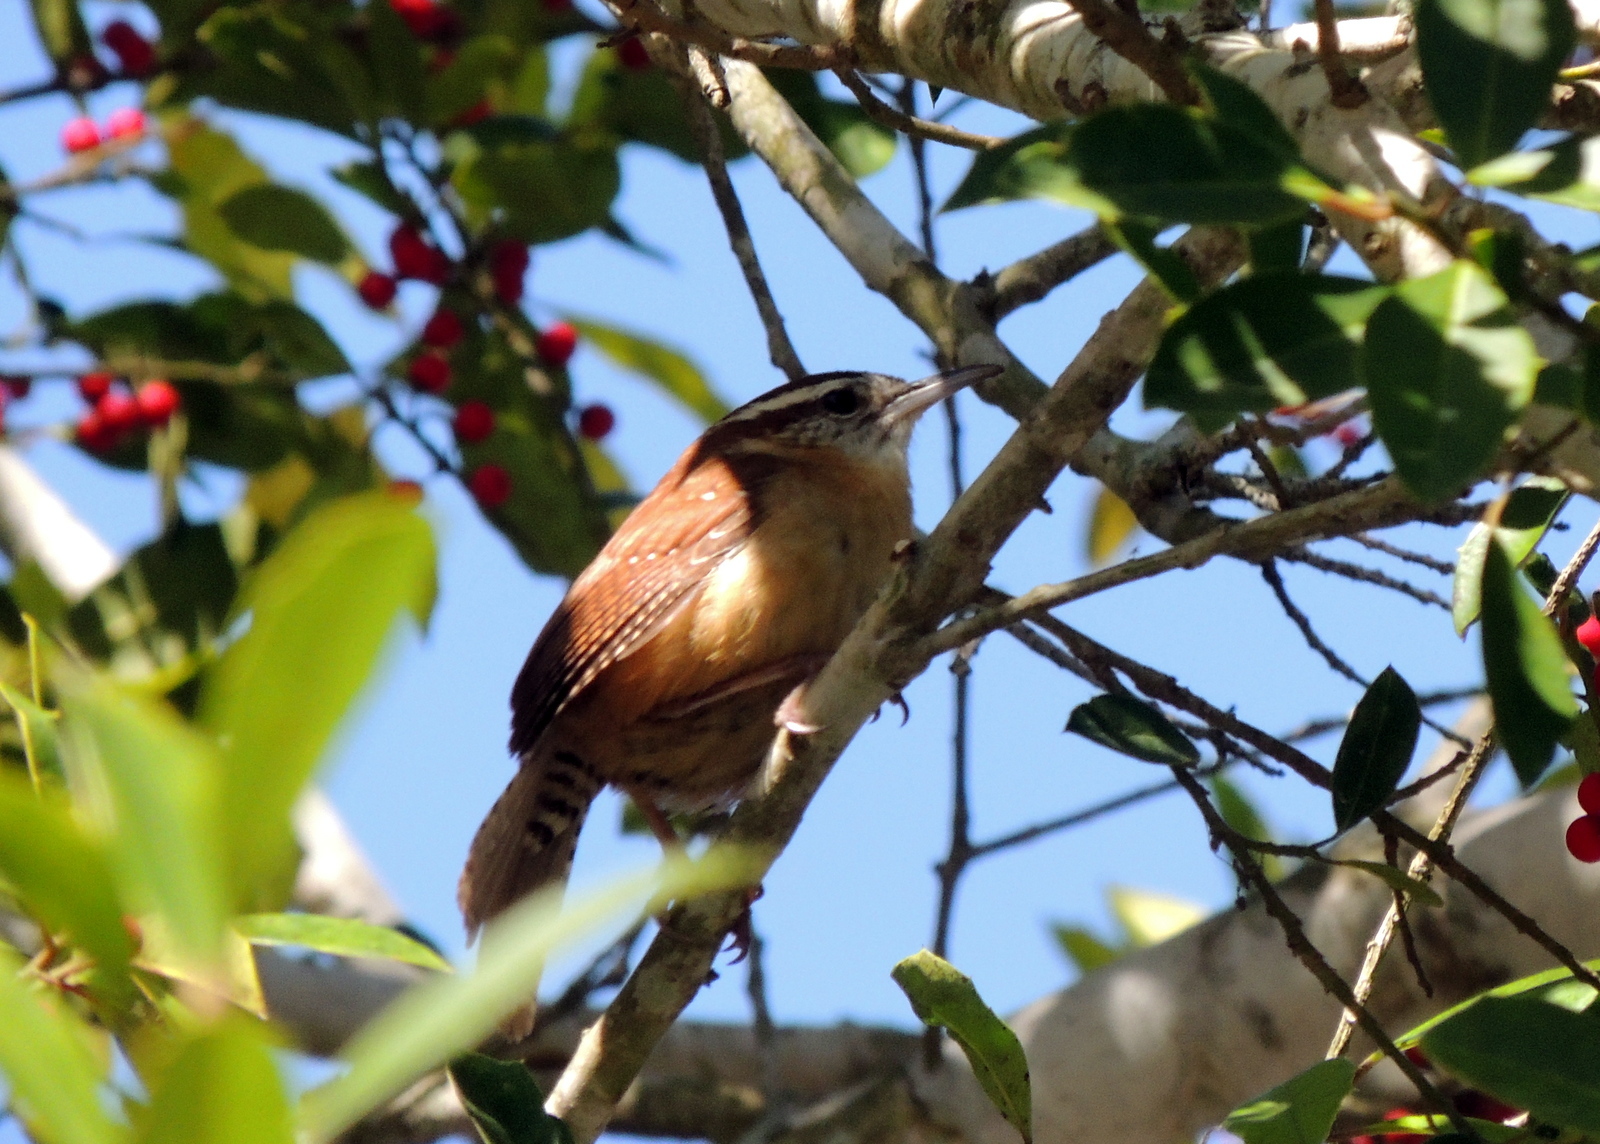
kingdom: Animalia
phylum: Chordata
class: Aves
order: Passeriformes
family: Troglodytidae
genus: Thryothorus
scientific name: Thryothorus ludovicianus
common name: Carolina wren
